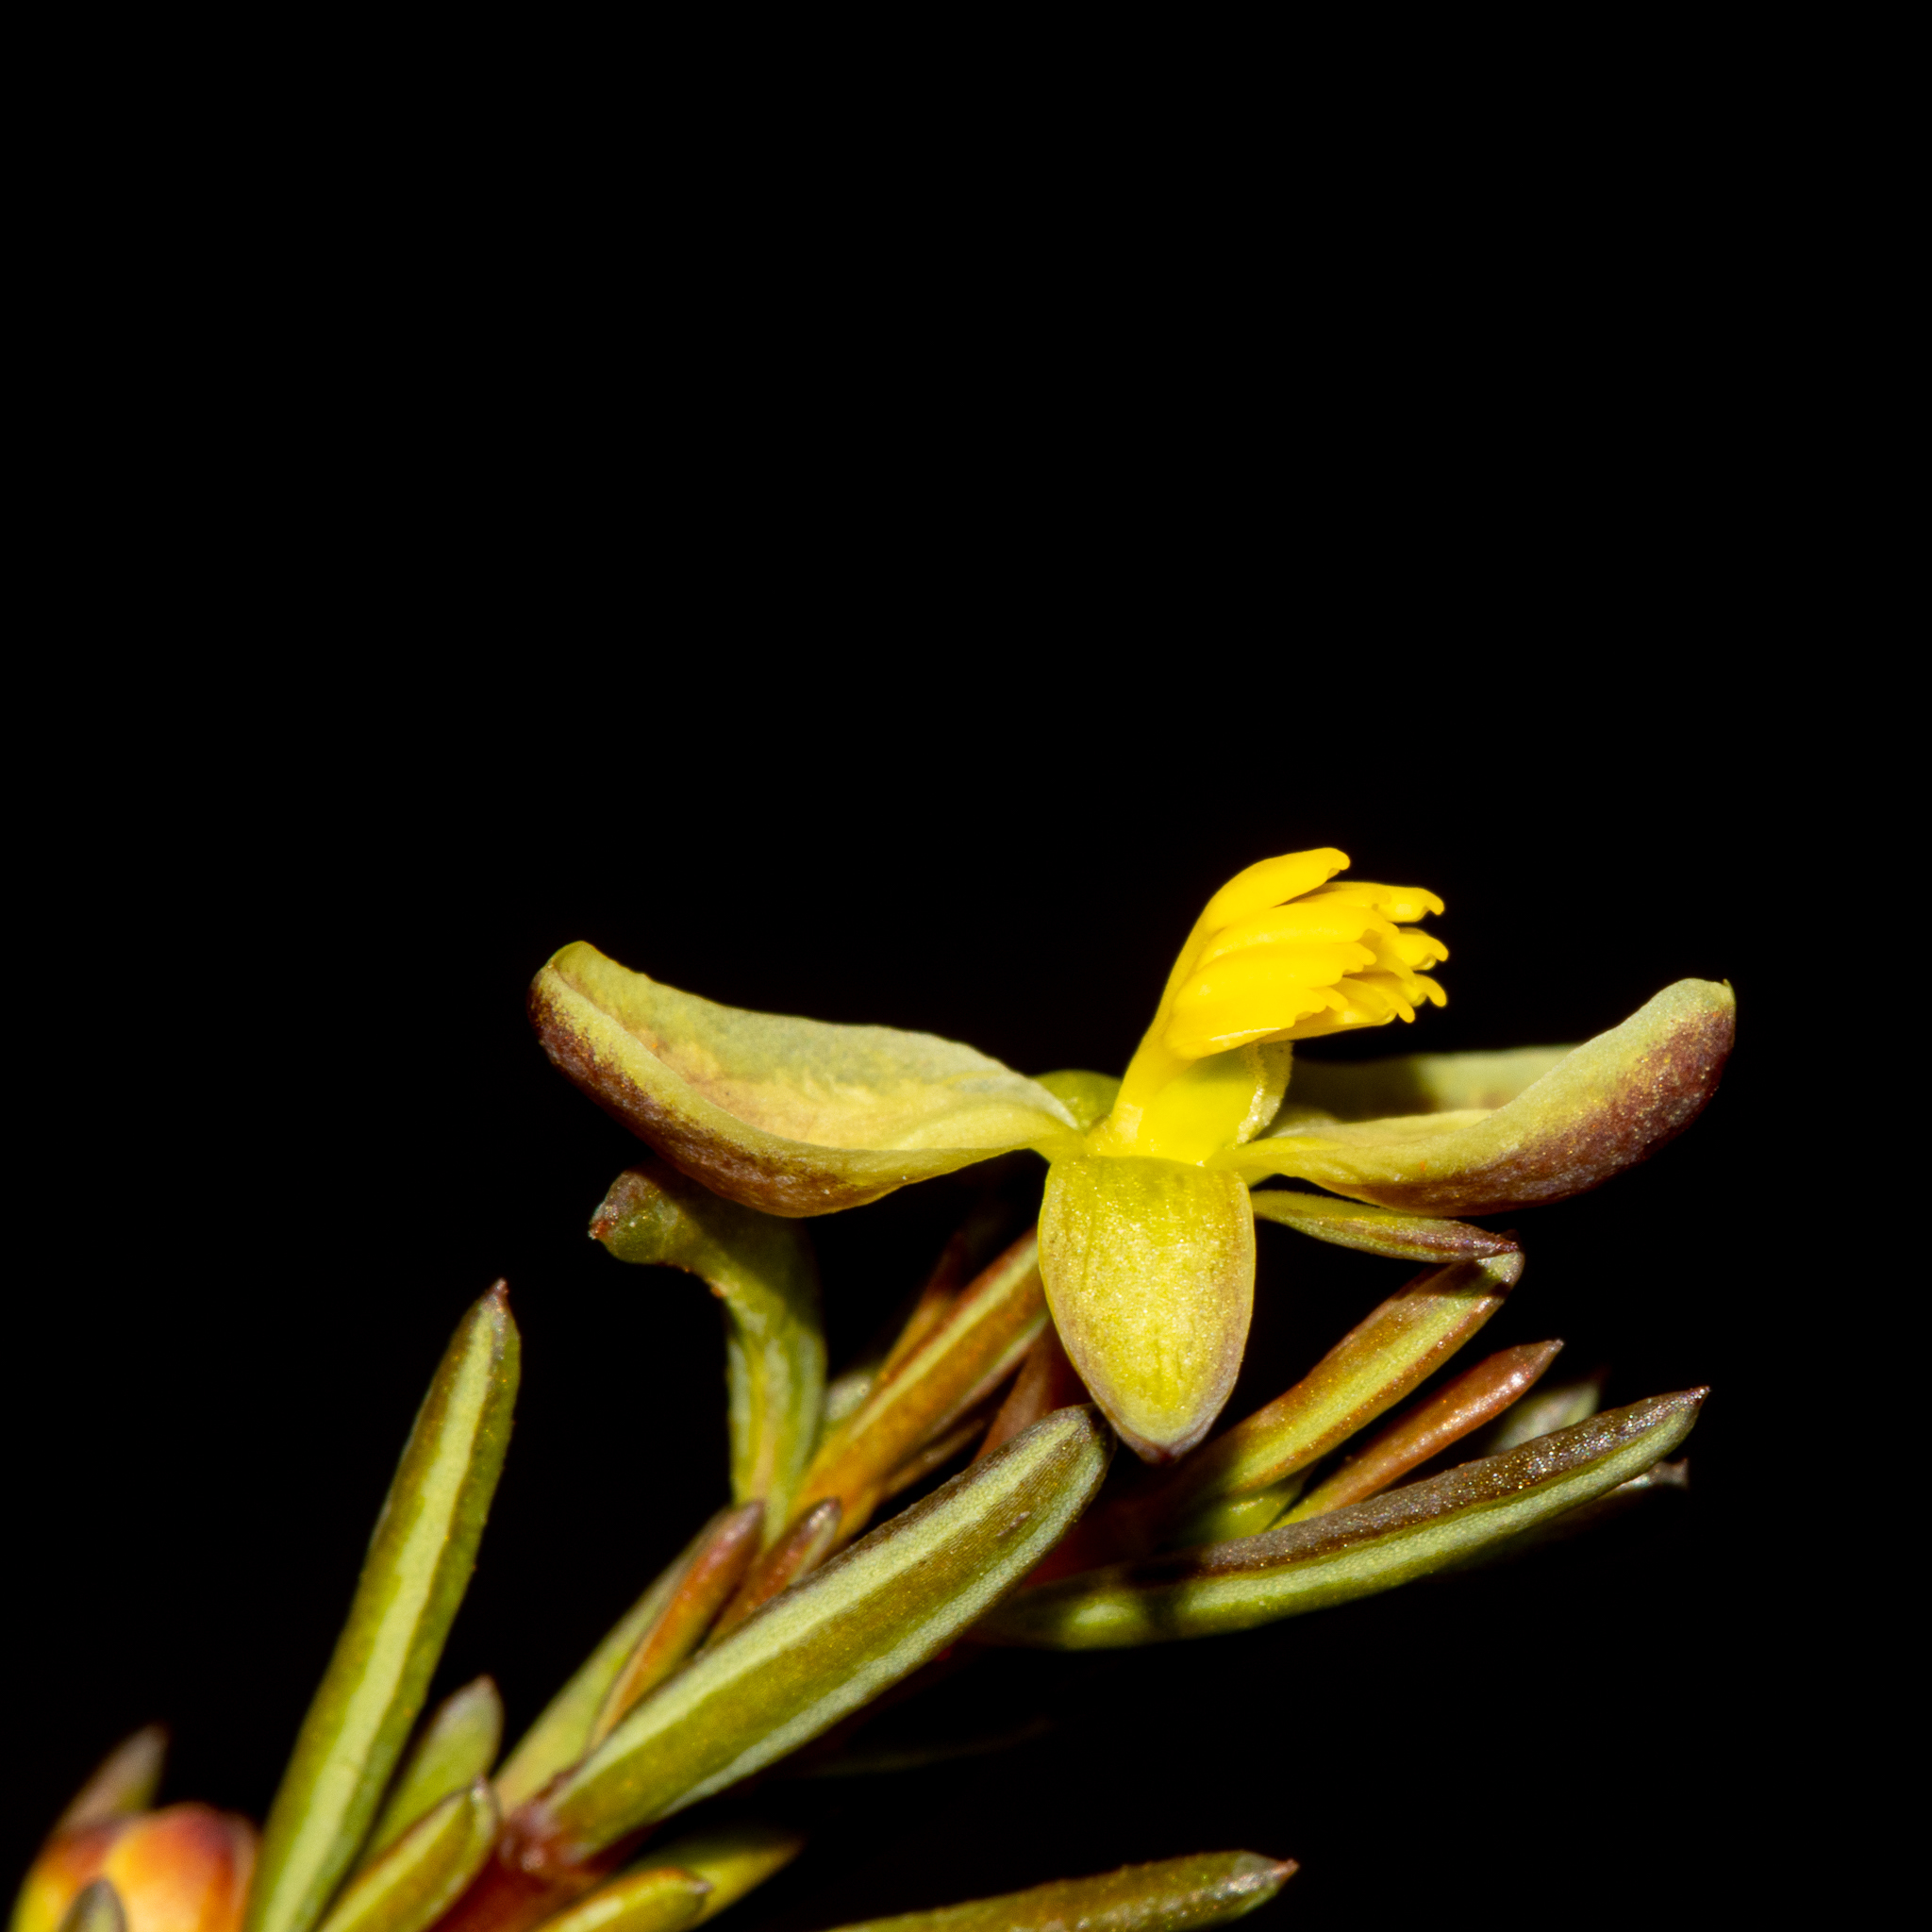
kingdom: Plantae
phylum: Tracheophyta
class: Magnoliopsida
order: Dilleniales
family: Dilleniaceae
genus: Hibbertia
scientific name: Hibbertia gracilipes
